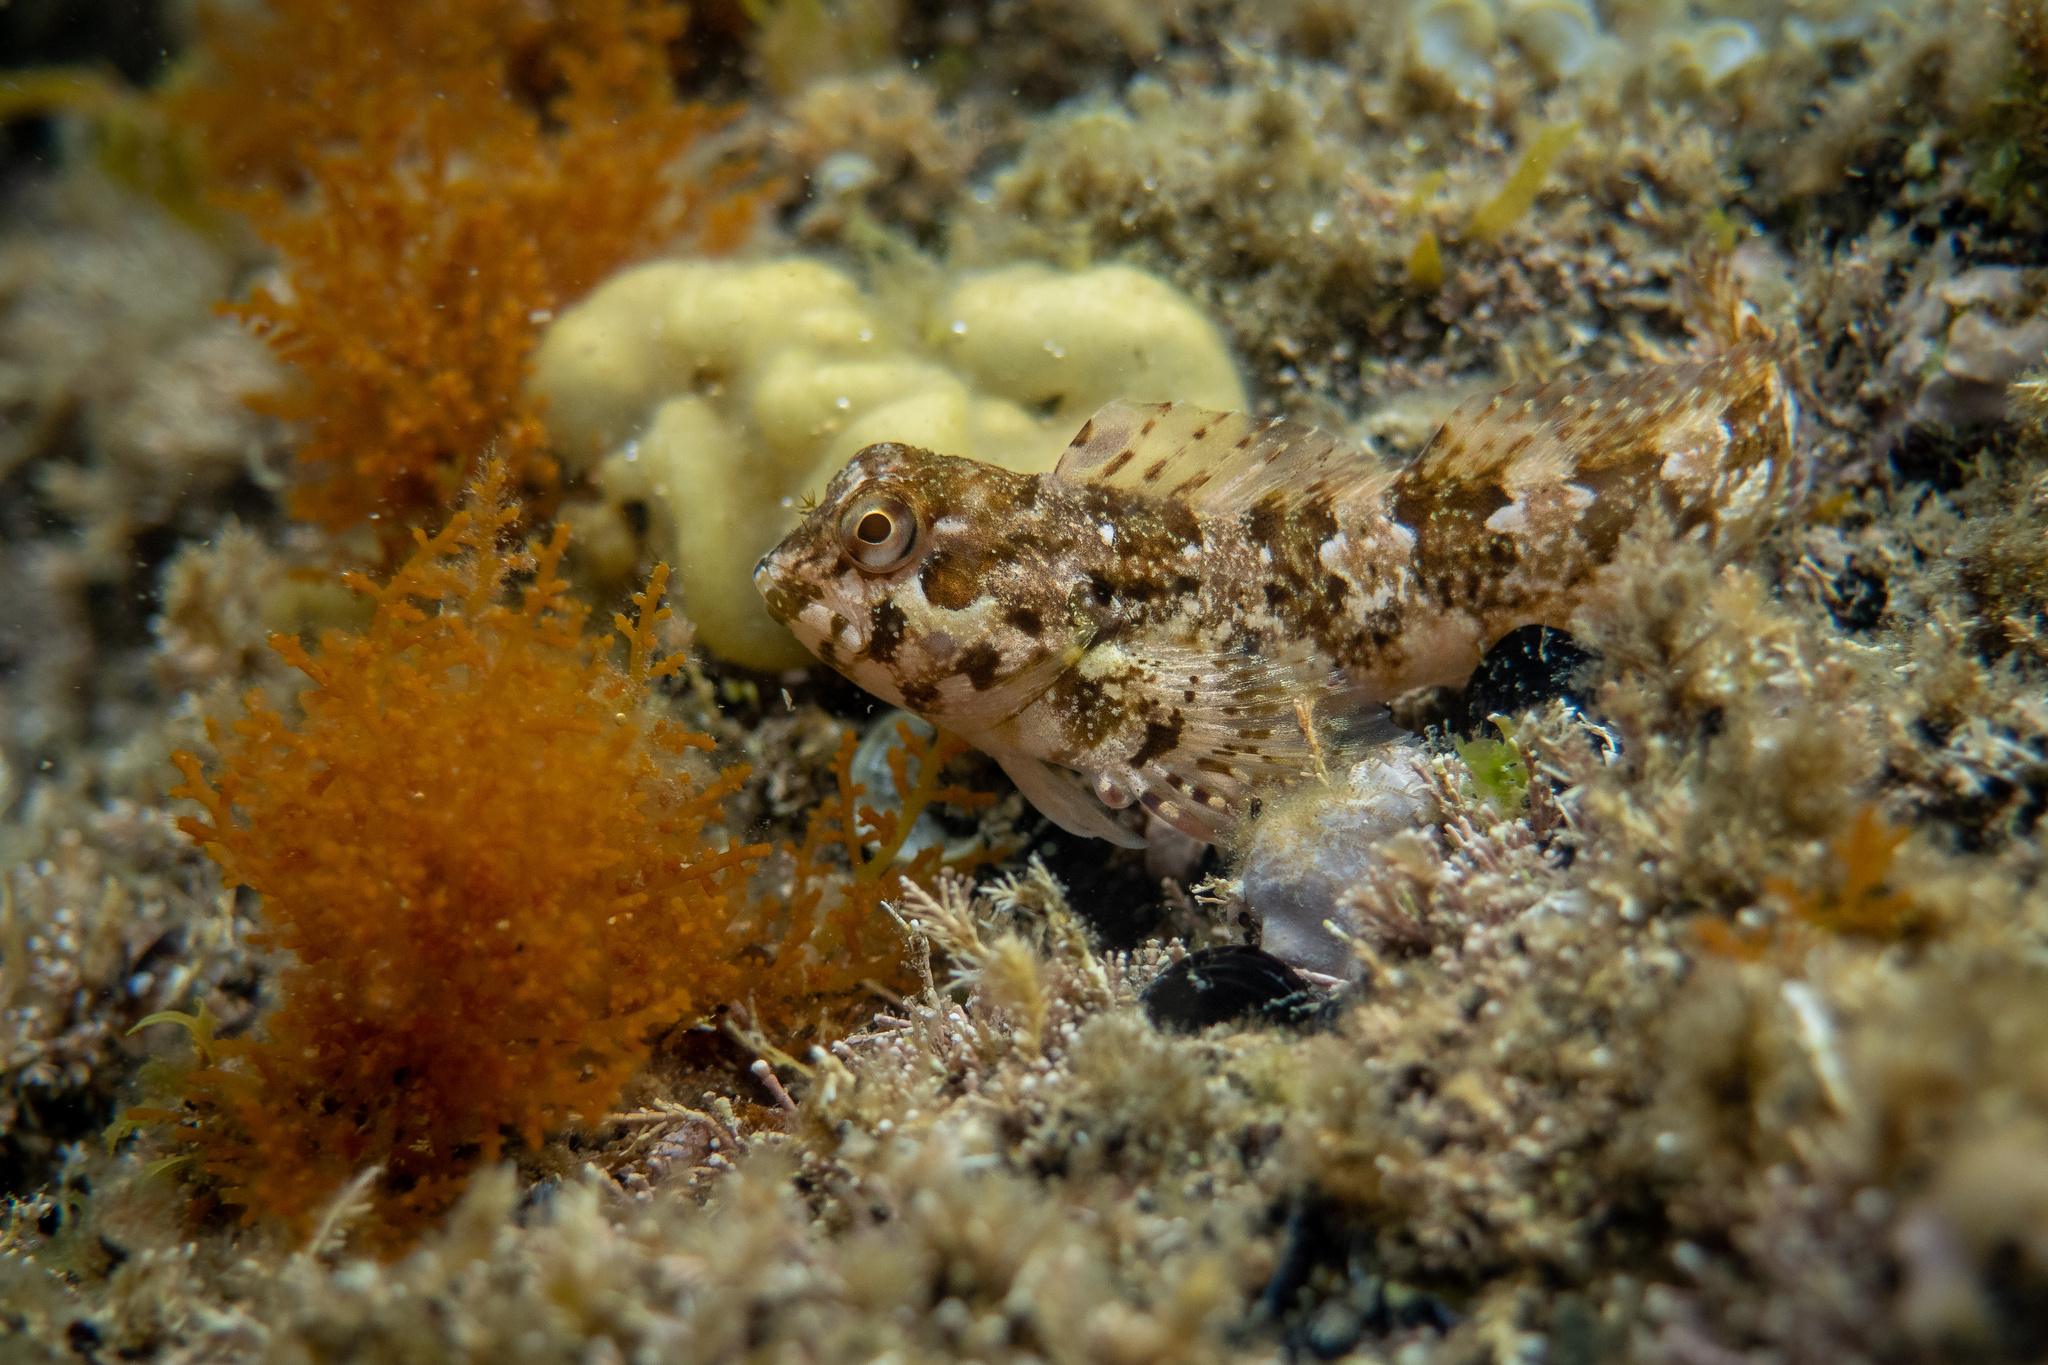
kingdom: Animalia
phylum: Chordata
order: Perciformes
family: Blenniidae
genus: Lipophrys
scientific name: Lipophrys trigloides
